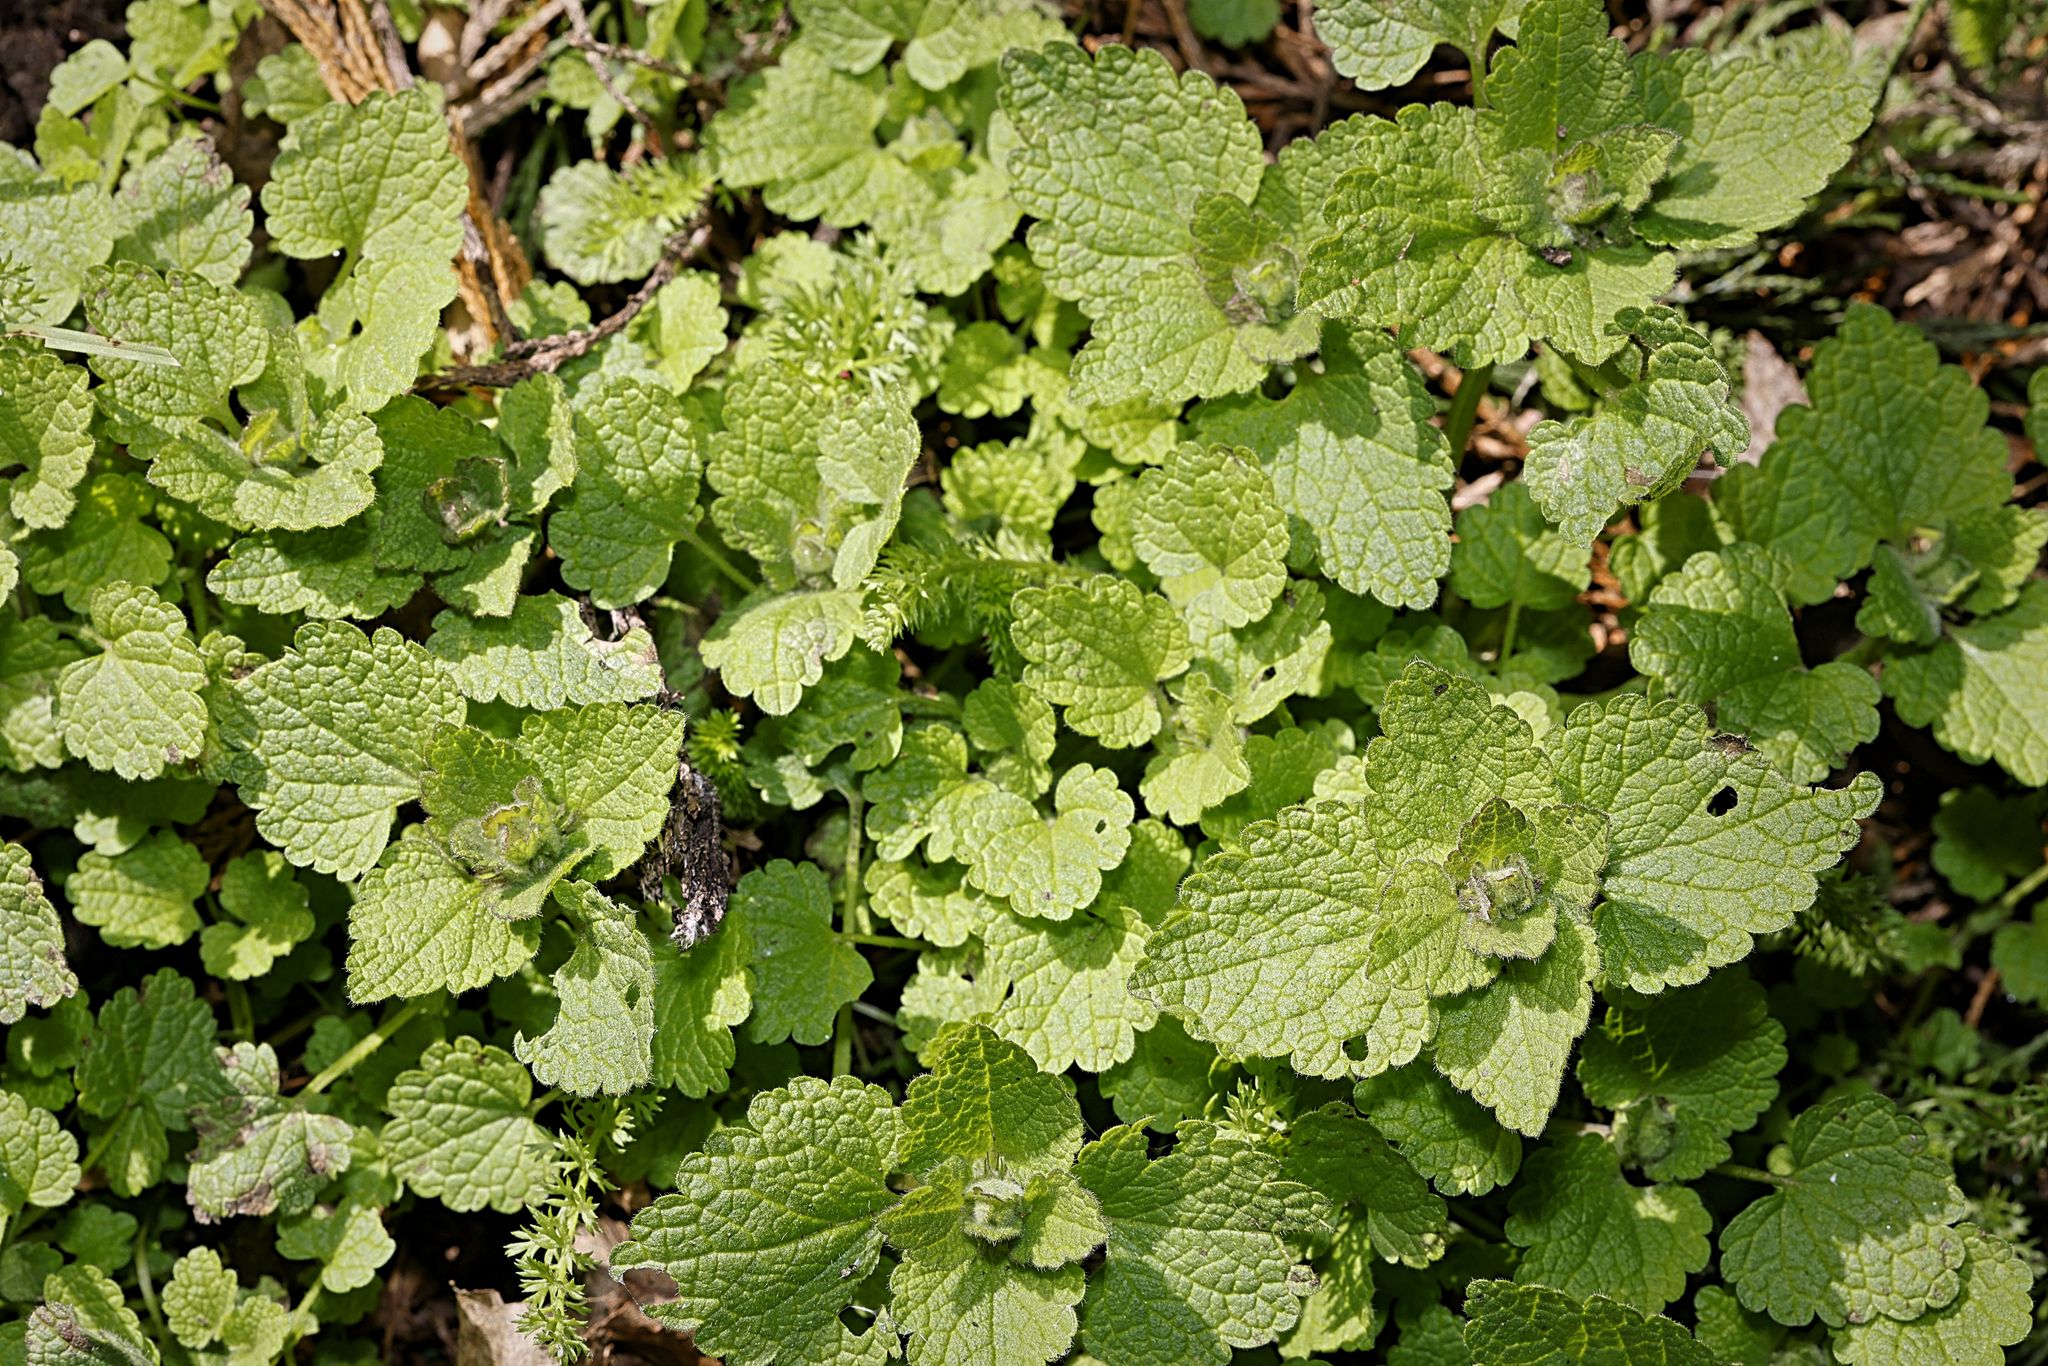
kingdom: Plantae
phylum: Tracheophyta
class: Magnoliopsida
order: Lamiales
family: Lamiaceae
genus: Lamium
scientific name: Lamium purpureum
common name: Red dead-nettle
